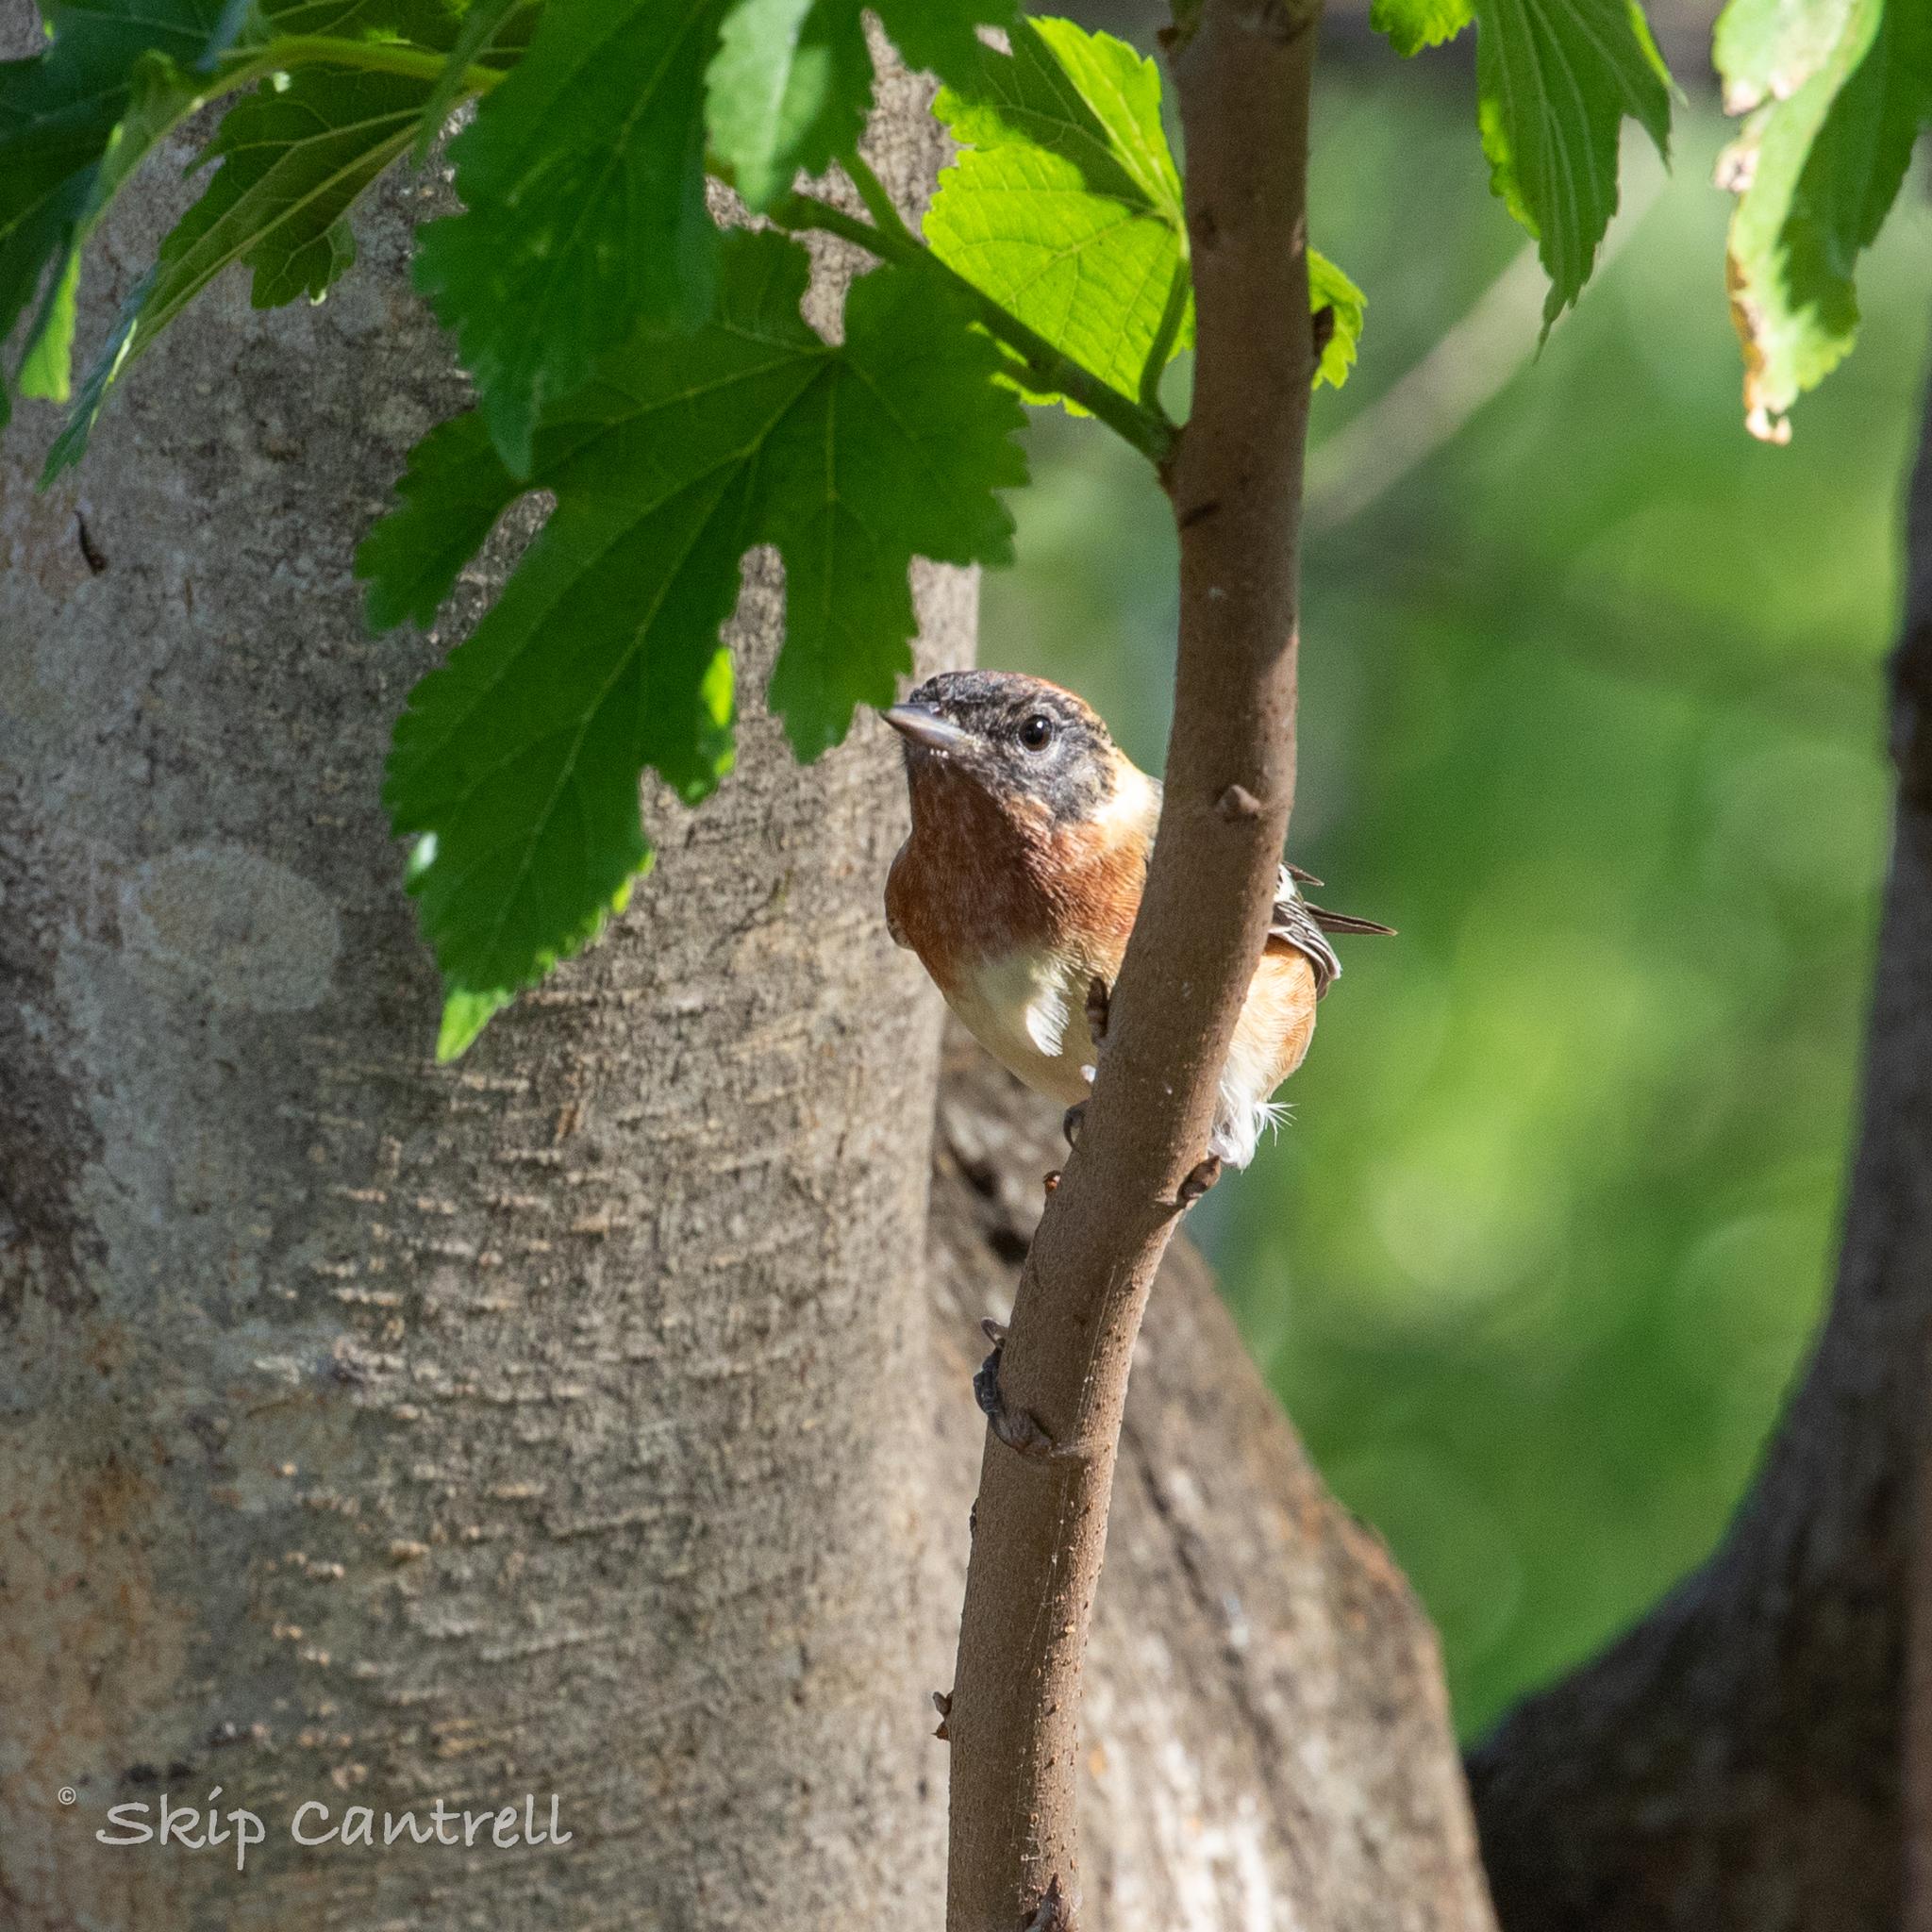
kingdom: Animalia
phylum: Chordata
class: Aves
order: Passeriformes
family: Parulidae
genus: Setophaga
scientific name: Setophaga castanea
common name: Bay-breasted warbler
